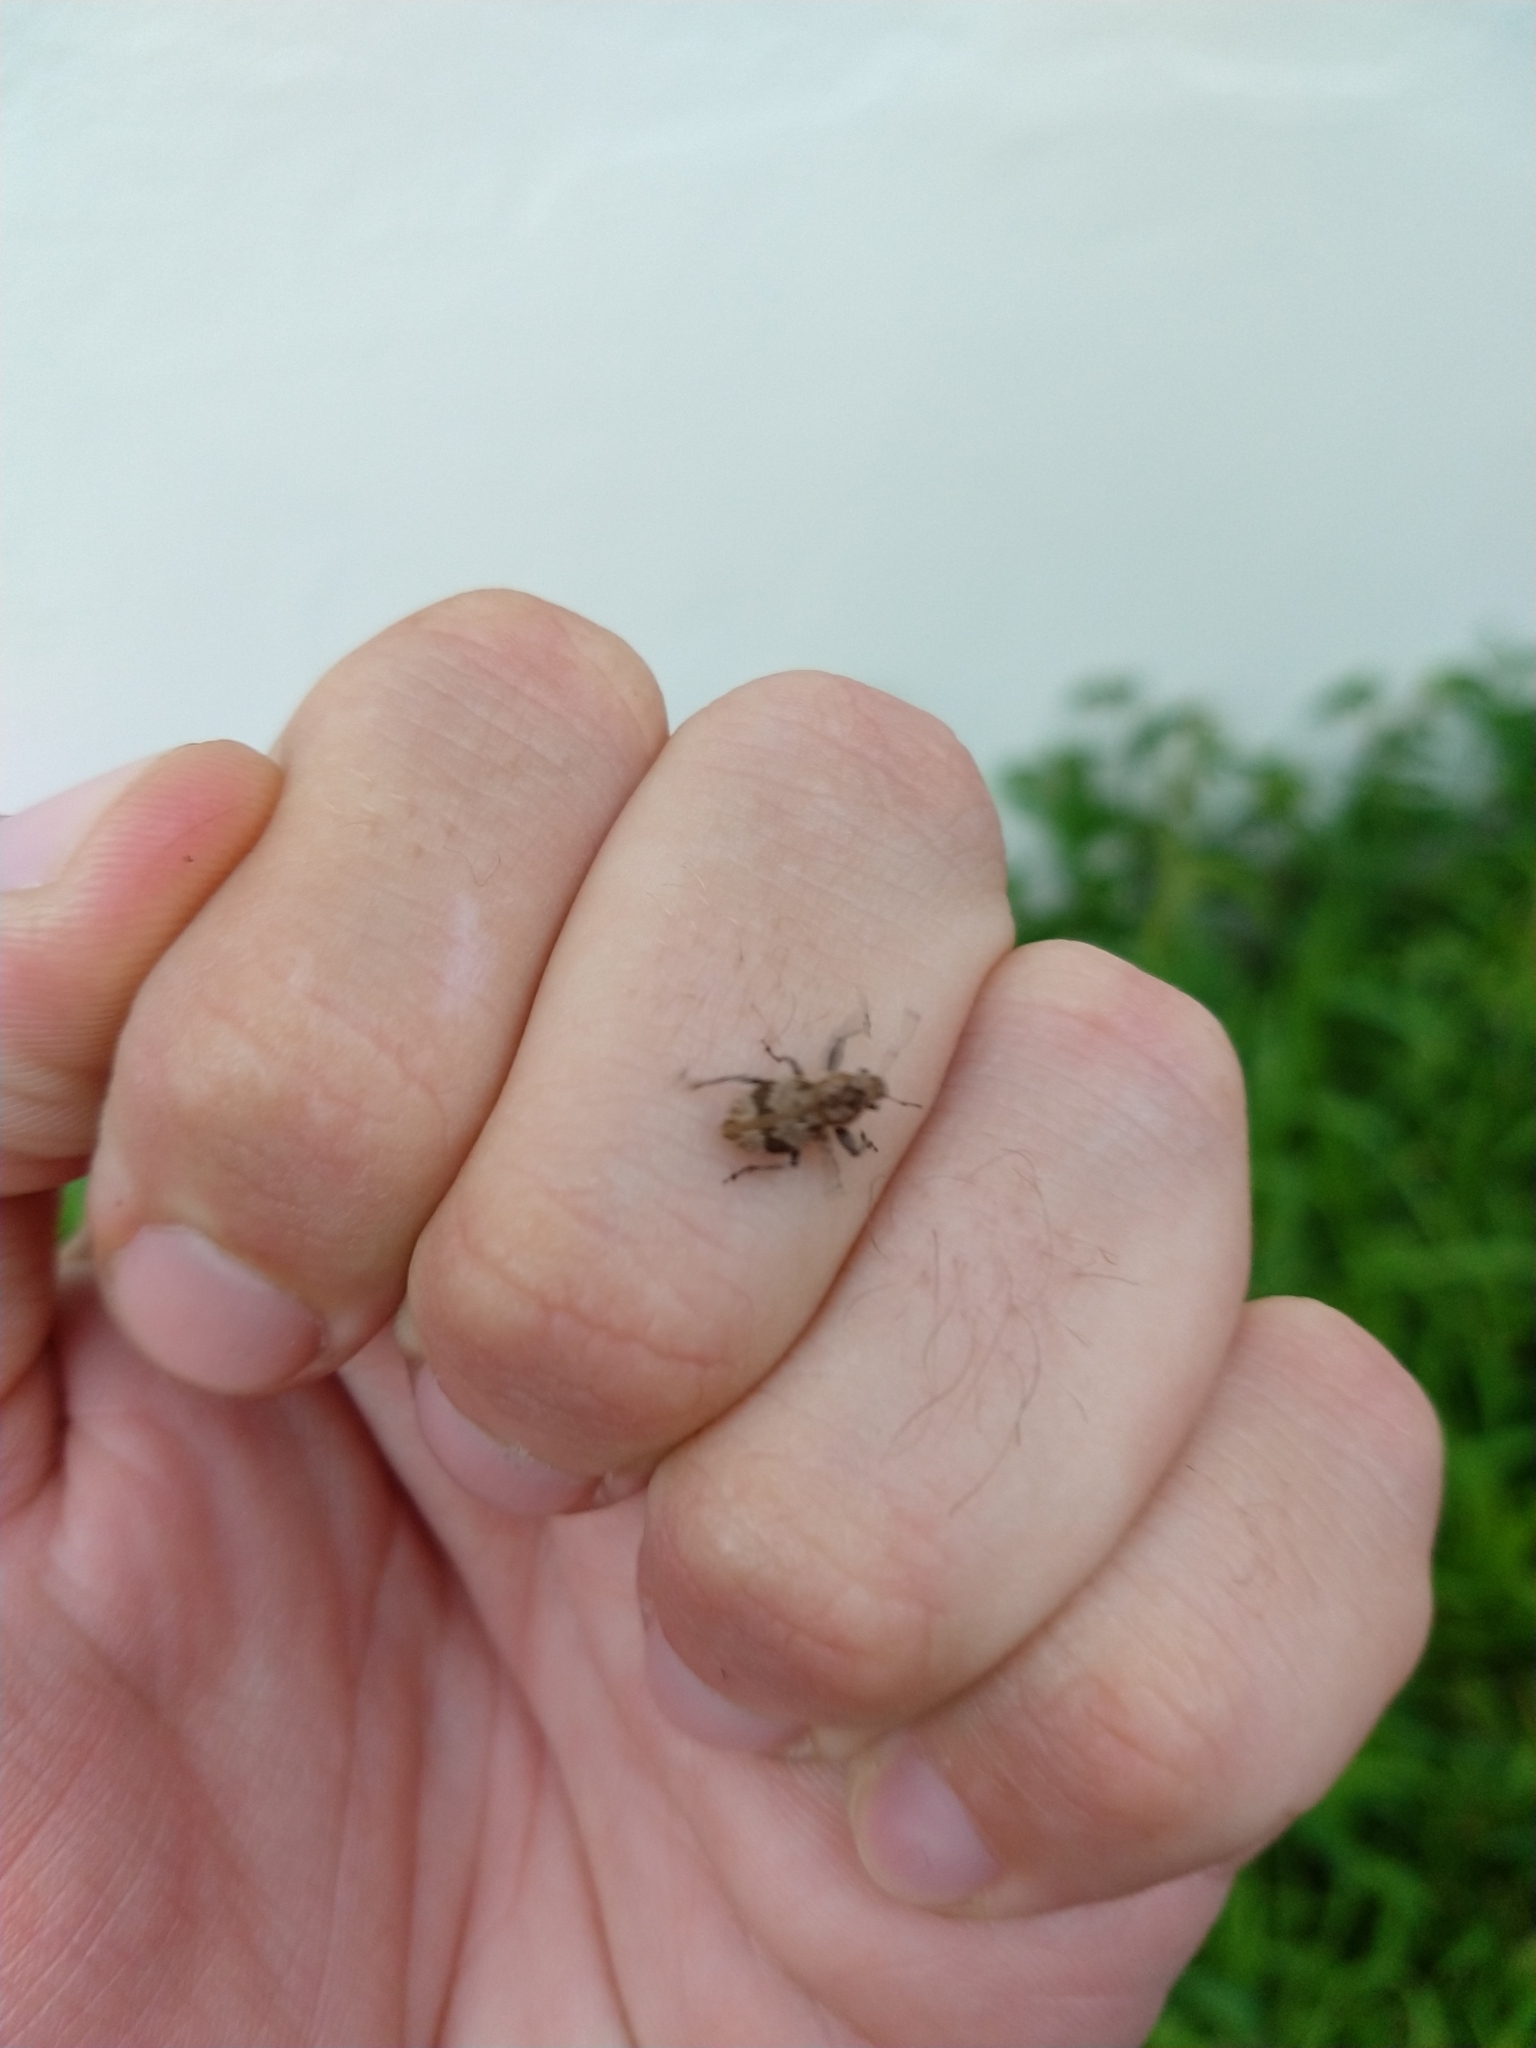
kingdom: Animalia
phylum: Arthropoda
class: Insecta
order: Coleoptera
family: Curculionidae
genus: Pantomorus
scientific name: Pantomorus
